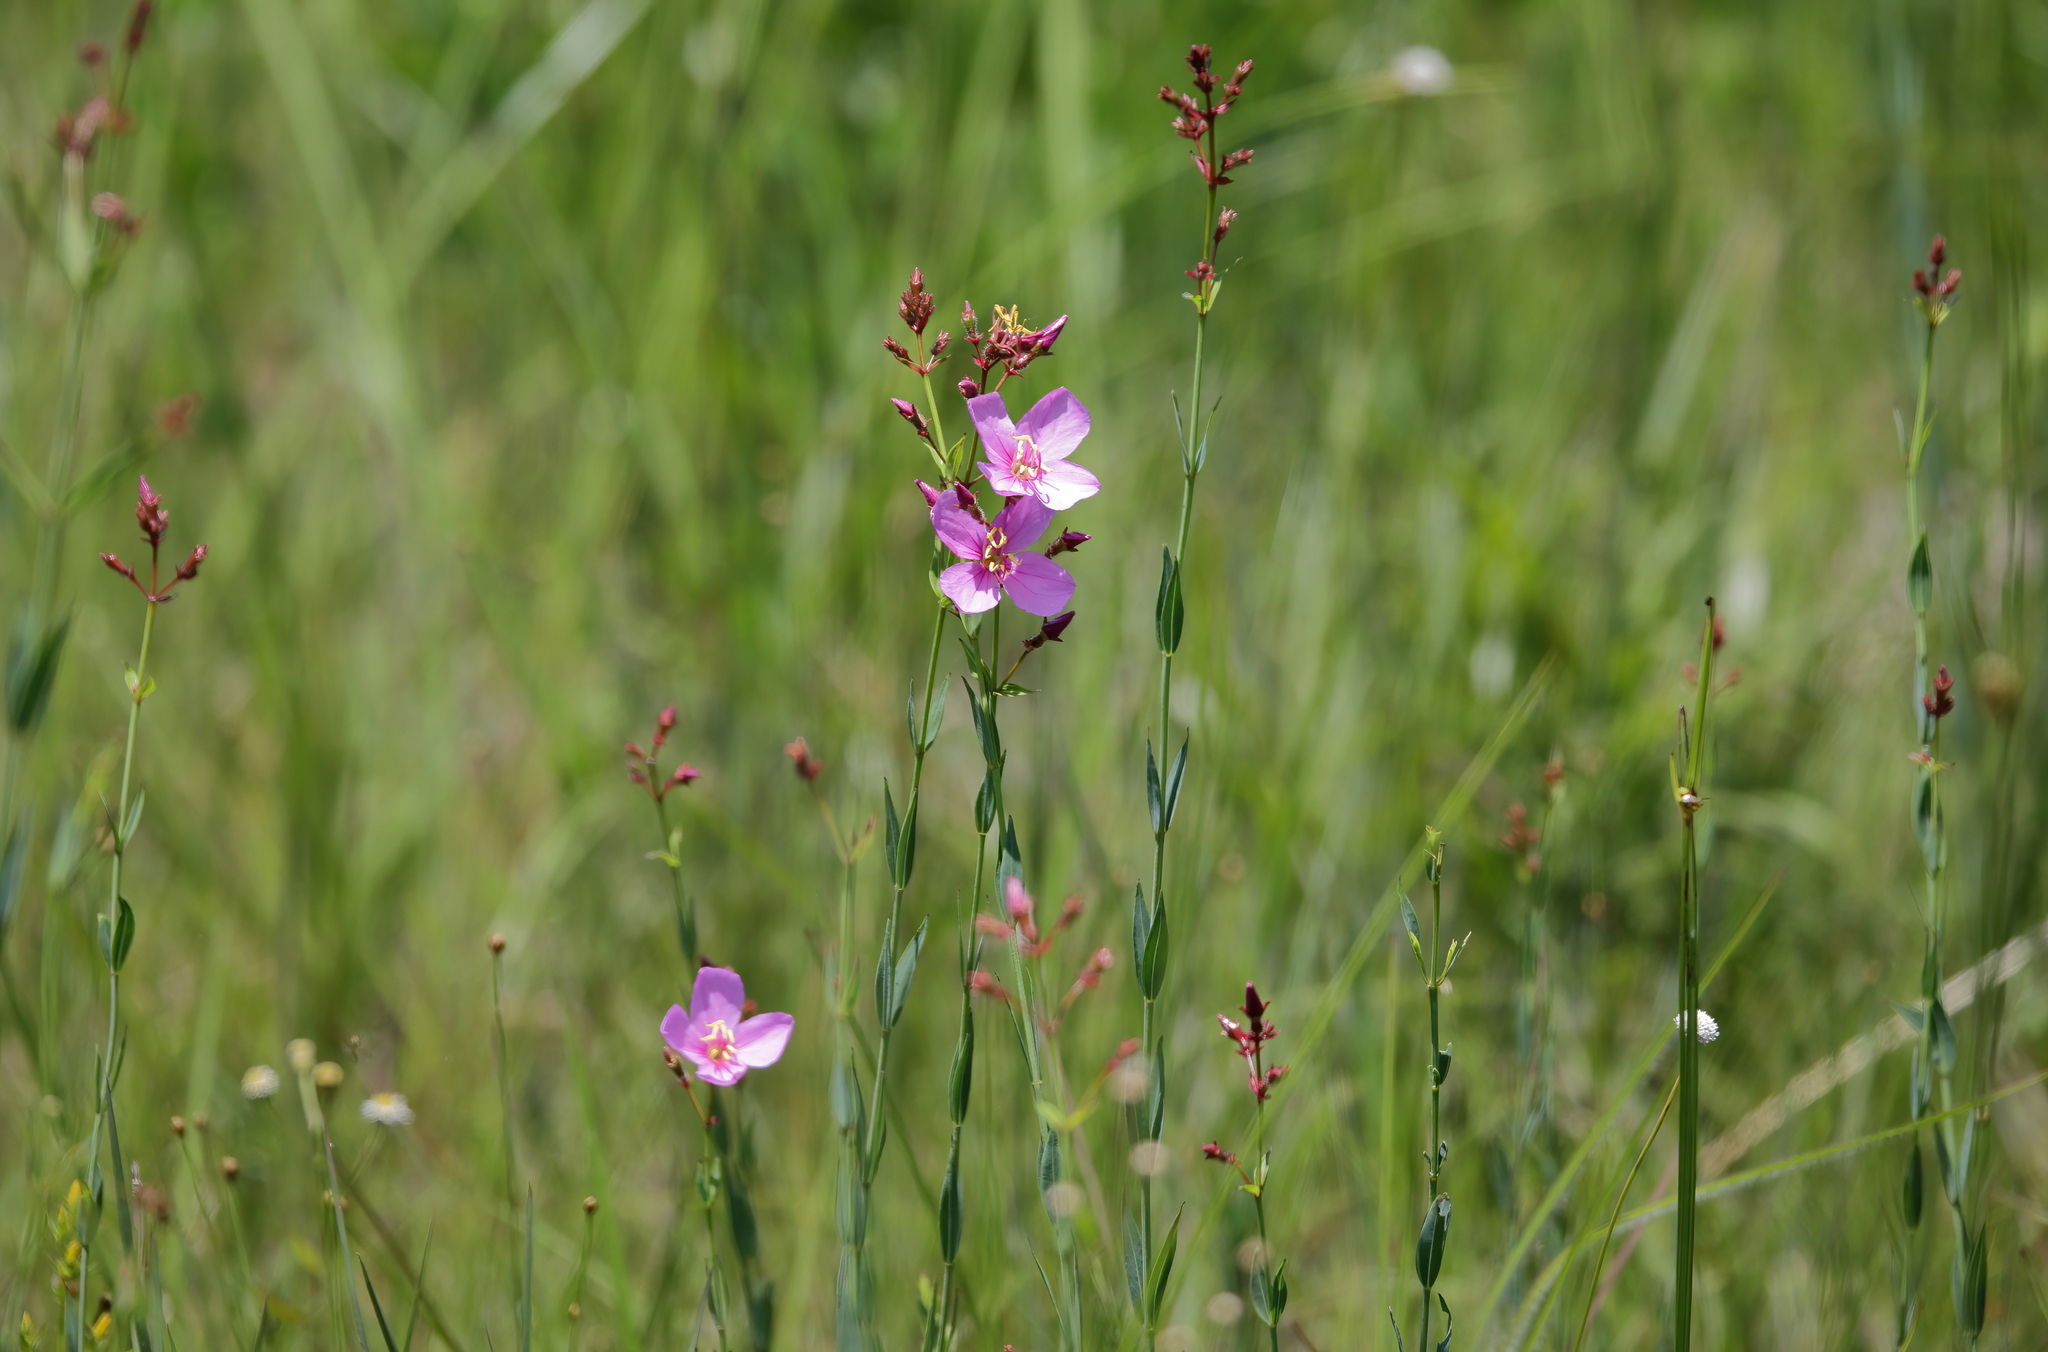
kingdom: Plantae
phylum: Tracheophyta
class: Magnoliopsida
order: Myrtales
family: Melastomataceae
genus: Rhexia
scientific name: Rhexia alifanus
